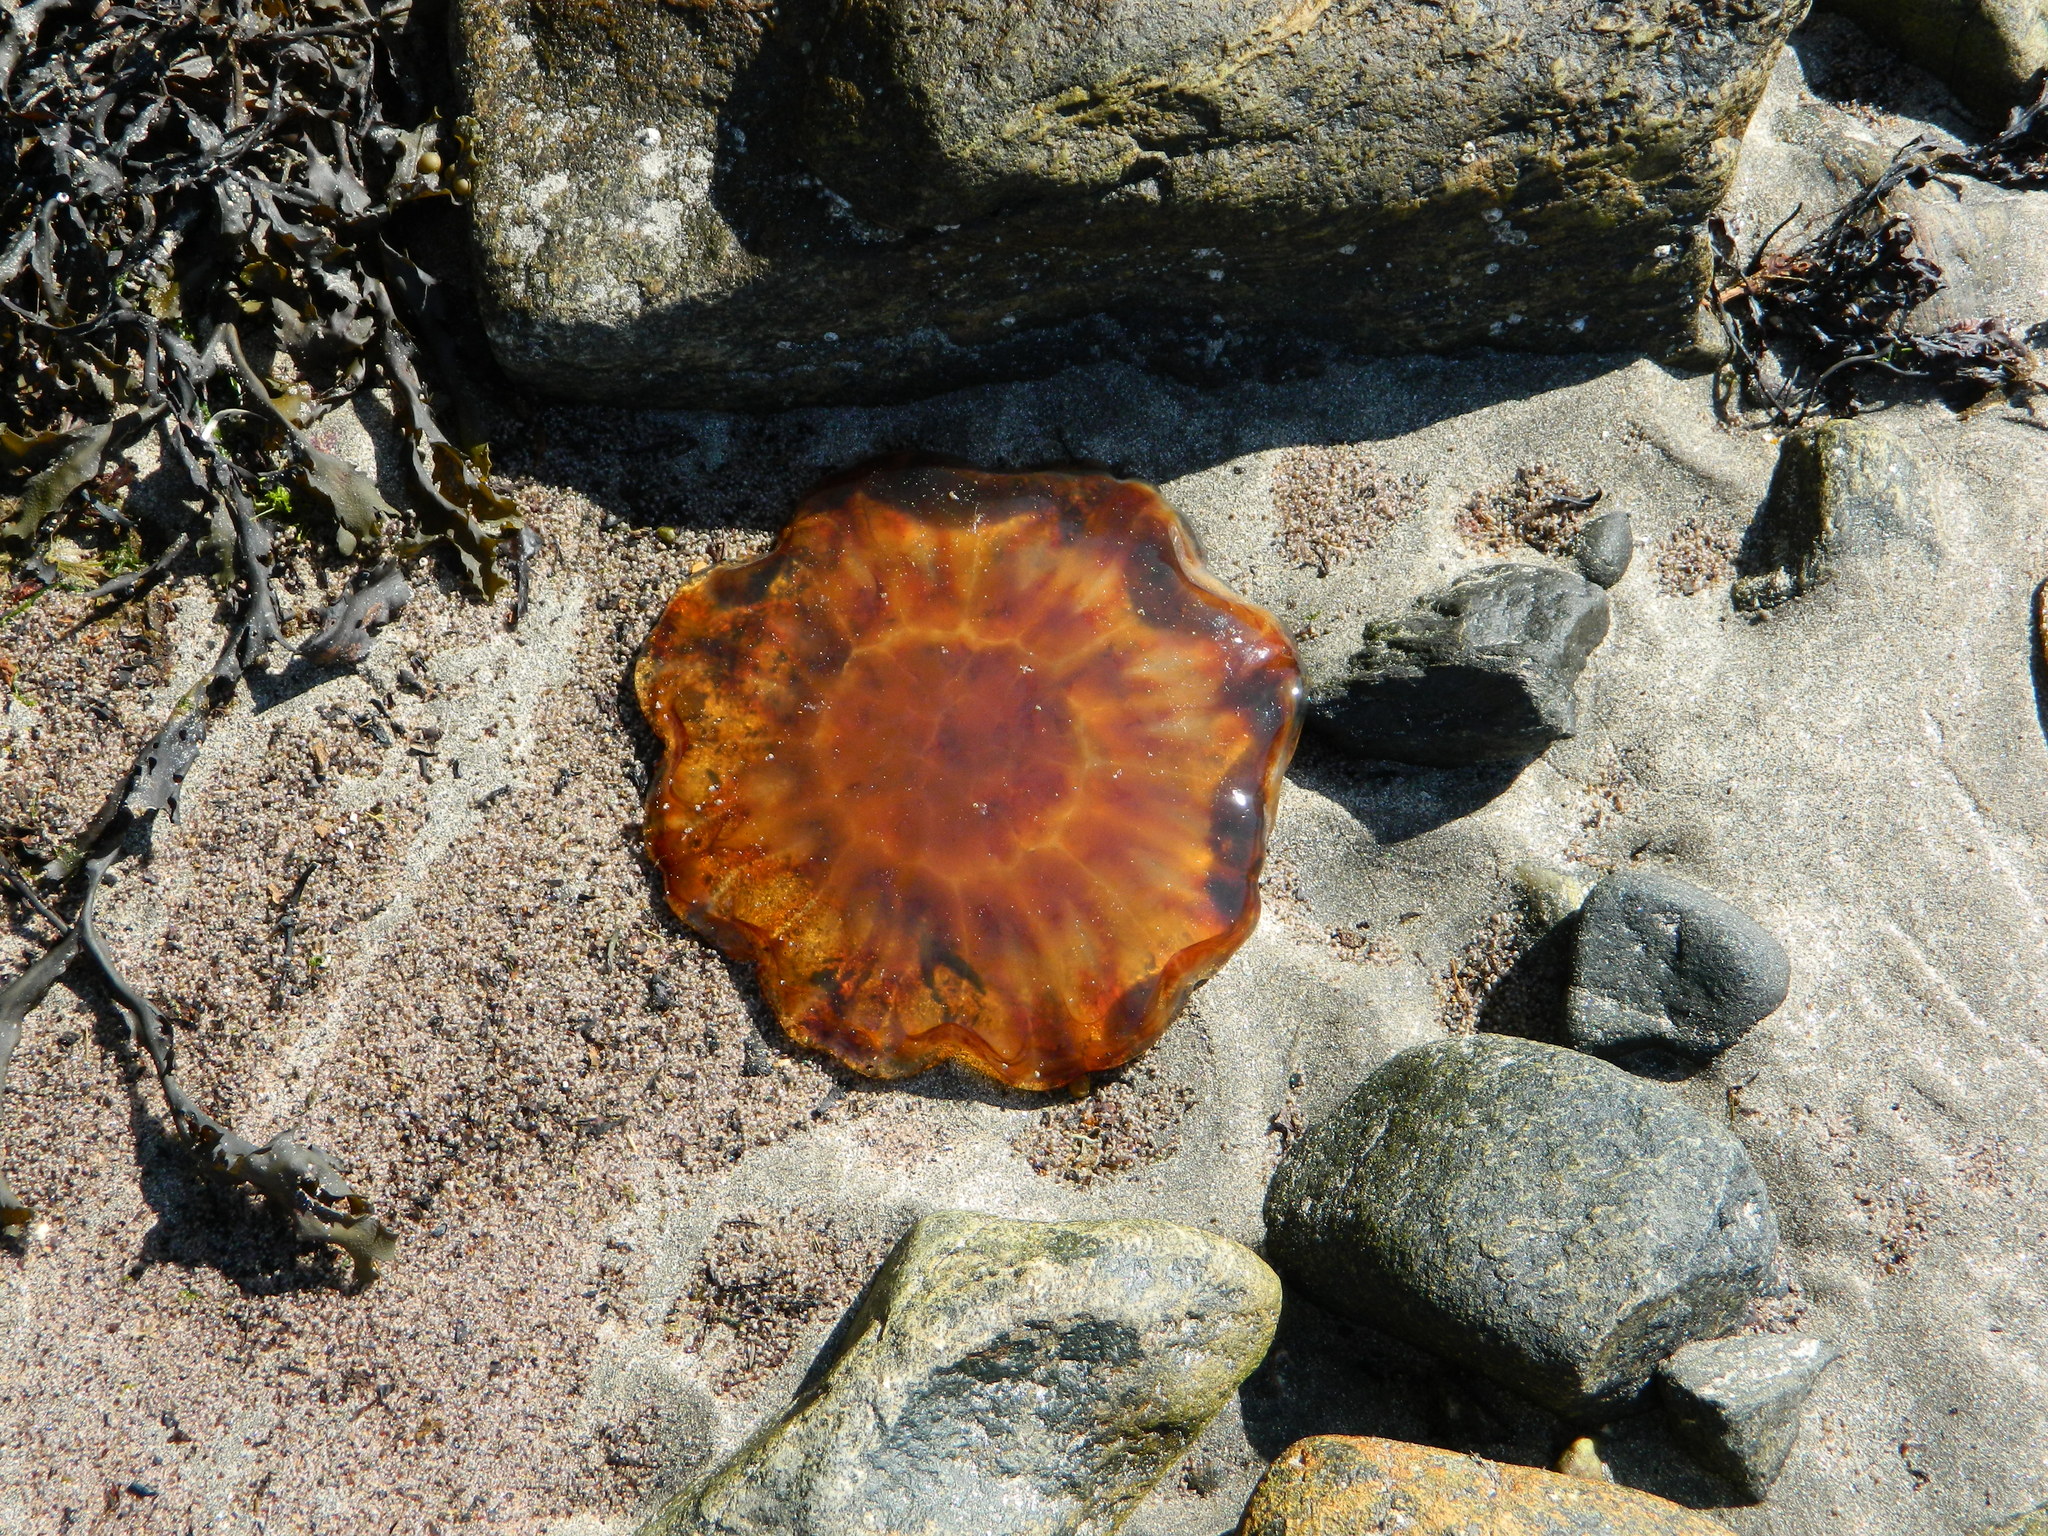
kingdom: Animalia
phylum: Cnidaria
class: Scyphozoa
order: Semaeostomeae
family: Cyaneidae
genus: Cyanea
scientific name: Cyanea capillata
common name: Lion's mane jellyfish
